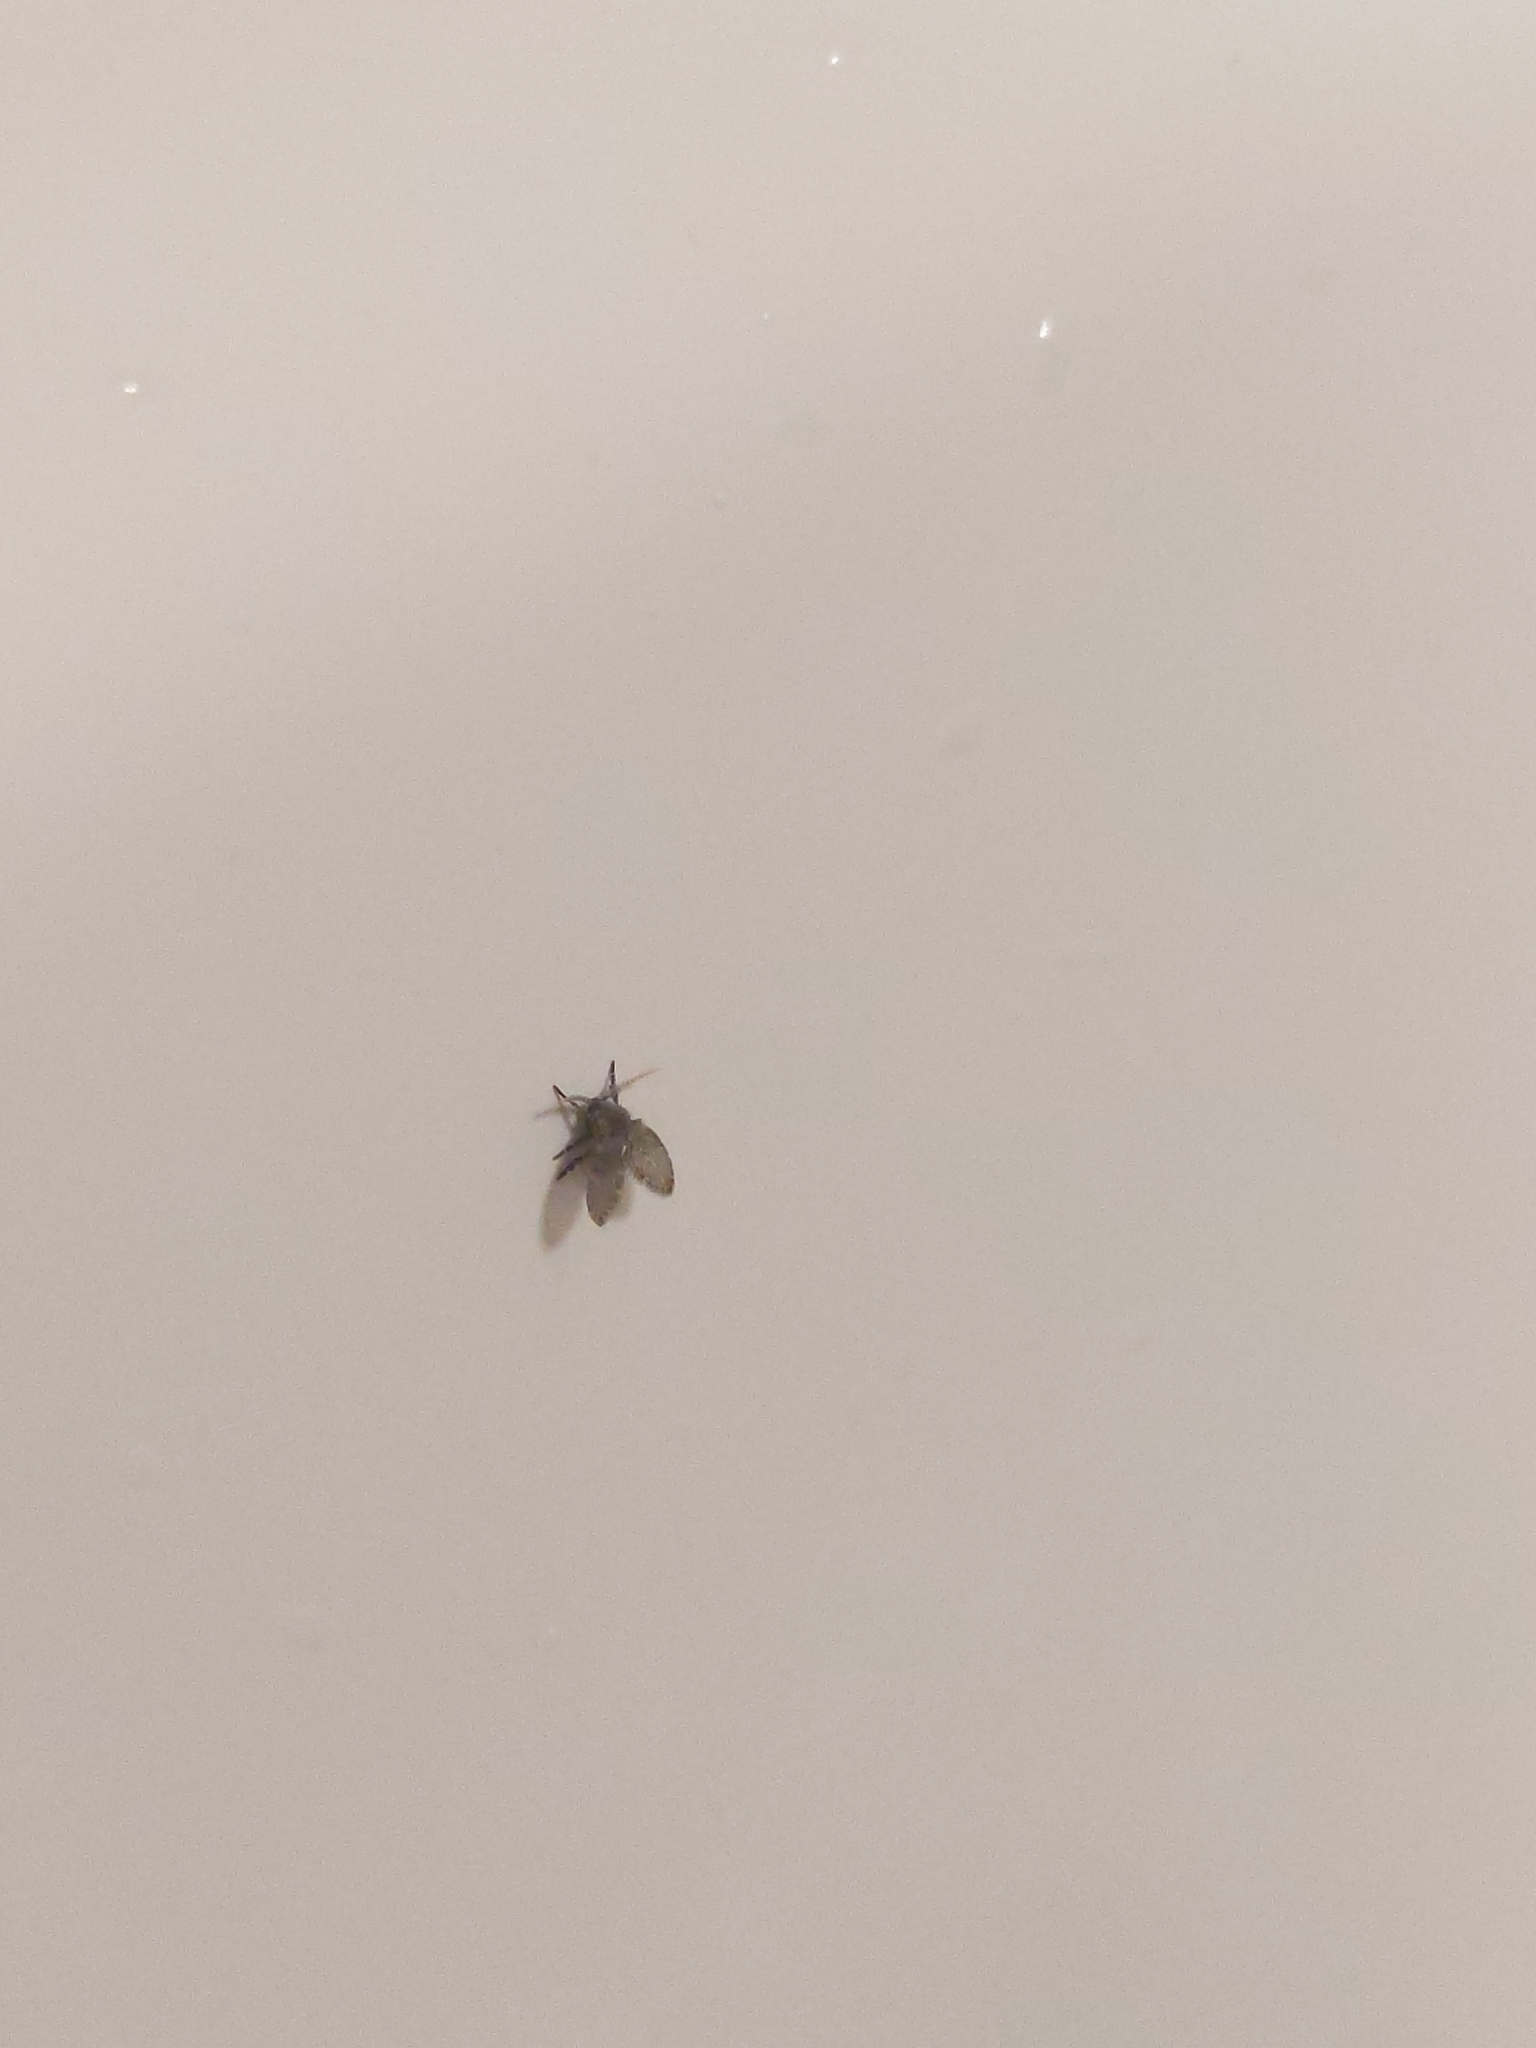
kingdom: Animalia
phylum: Arthropoda
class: Insecta
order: Diptera
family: Psychodidae
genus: Clogmia
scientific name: Clogmia albipunctatus
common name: White-spotted moth fly
